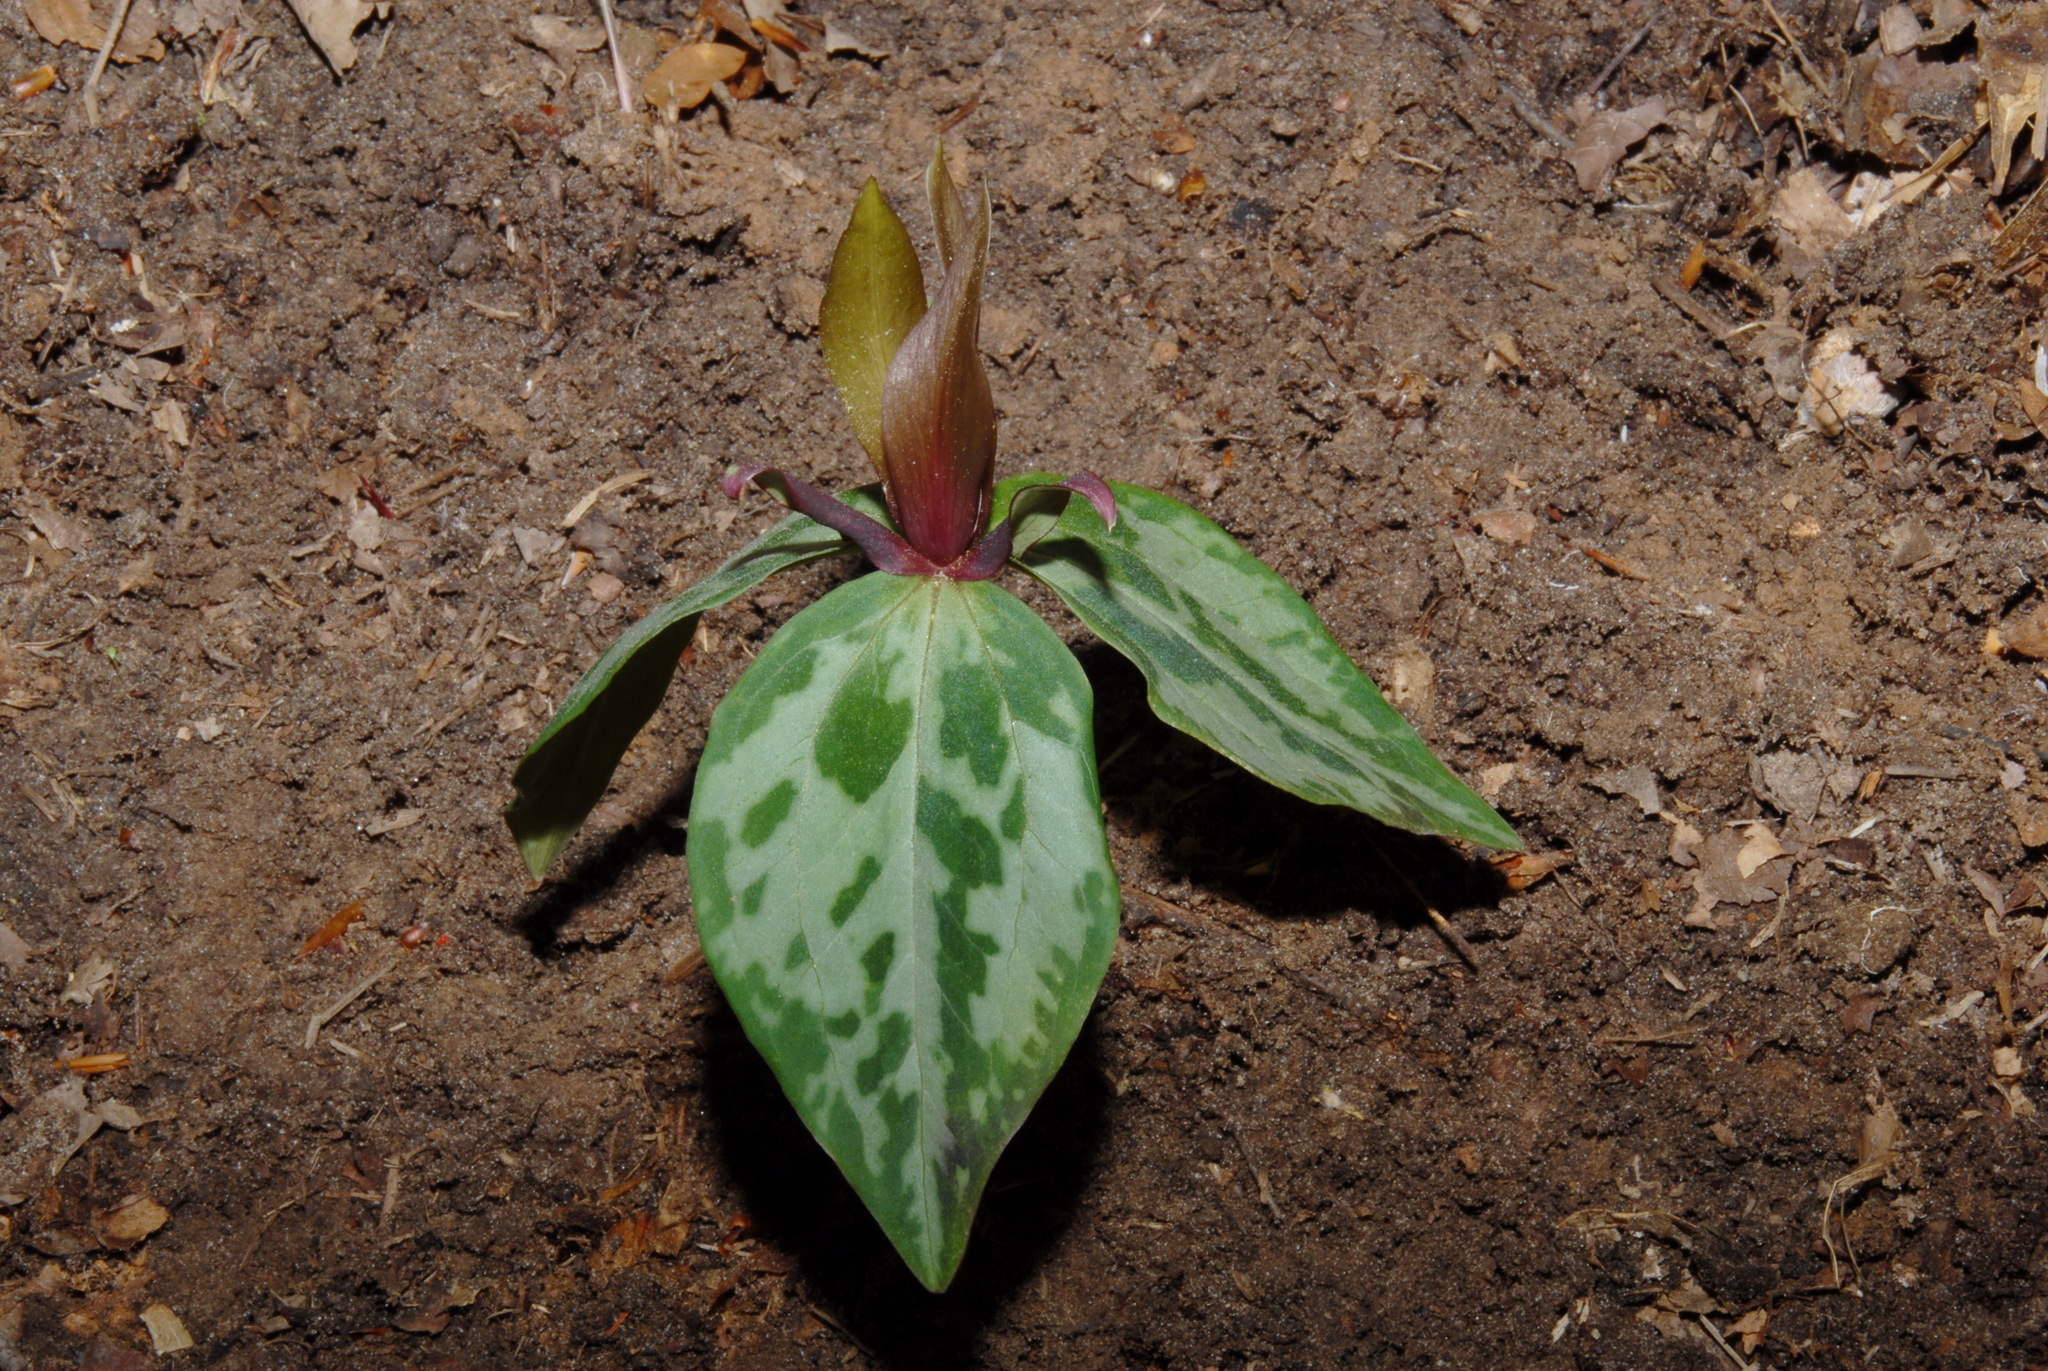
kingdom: Plantae
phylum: Tracheophyta
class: Liliopsida
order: Liliales
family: Melanthiaceae
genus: Trillium
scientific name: Trillium reliquum
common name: Relict trillium
